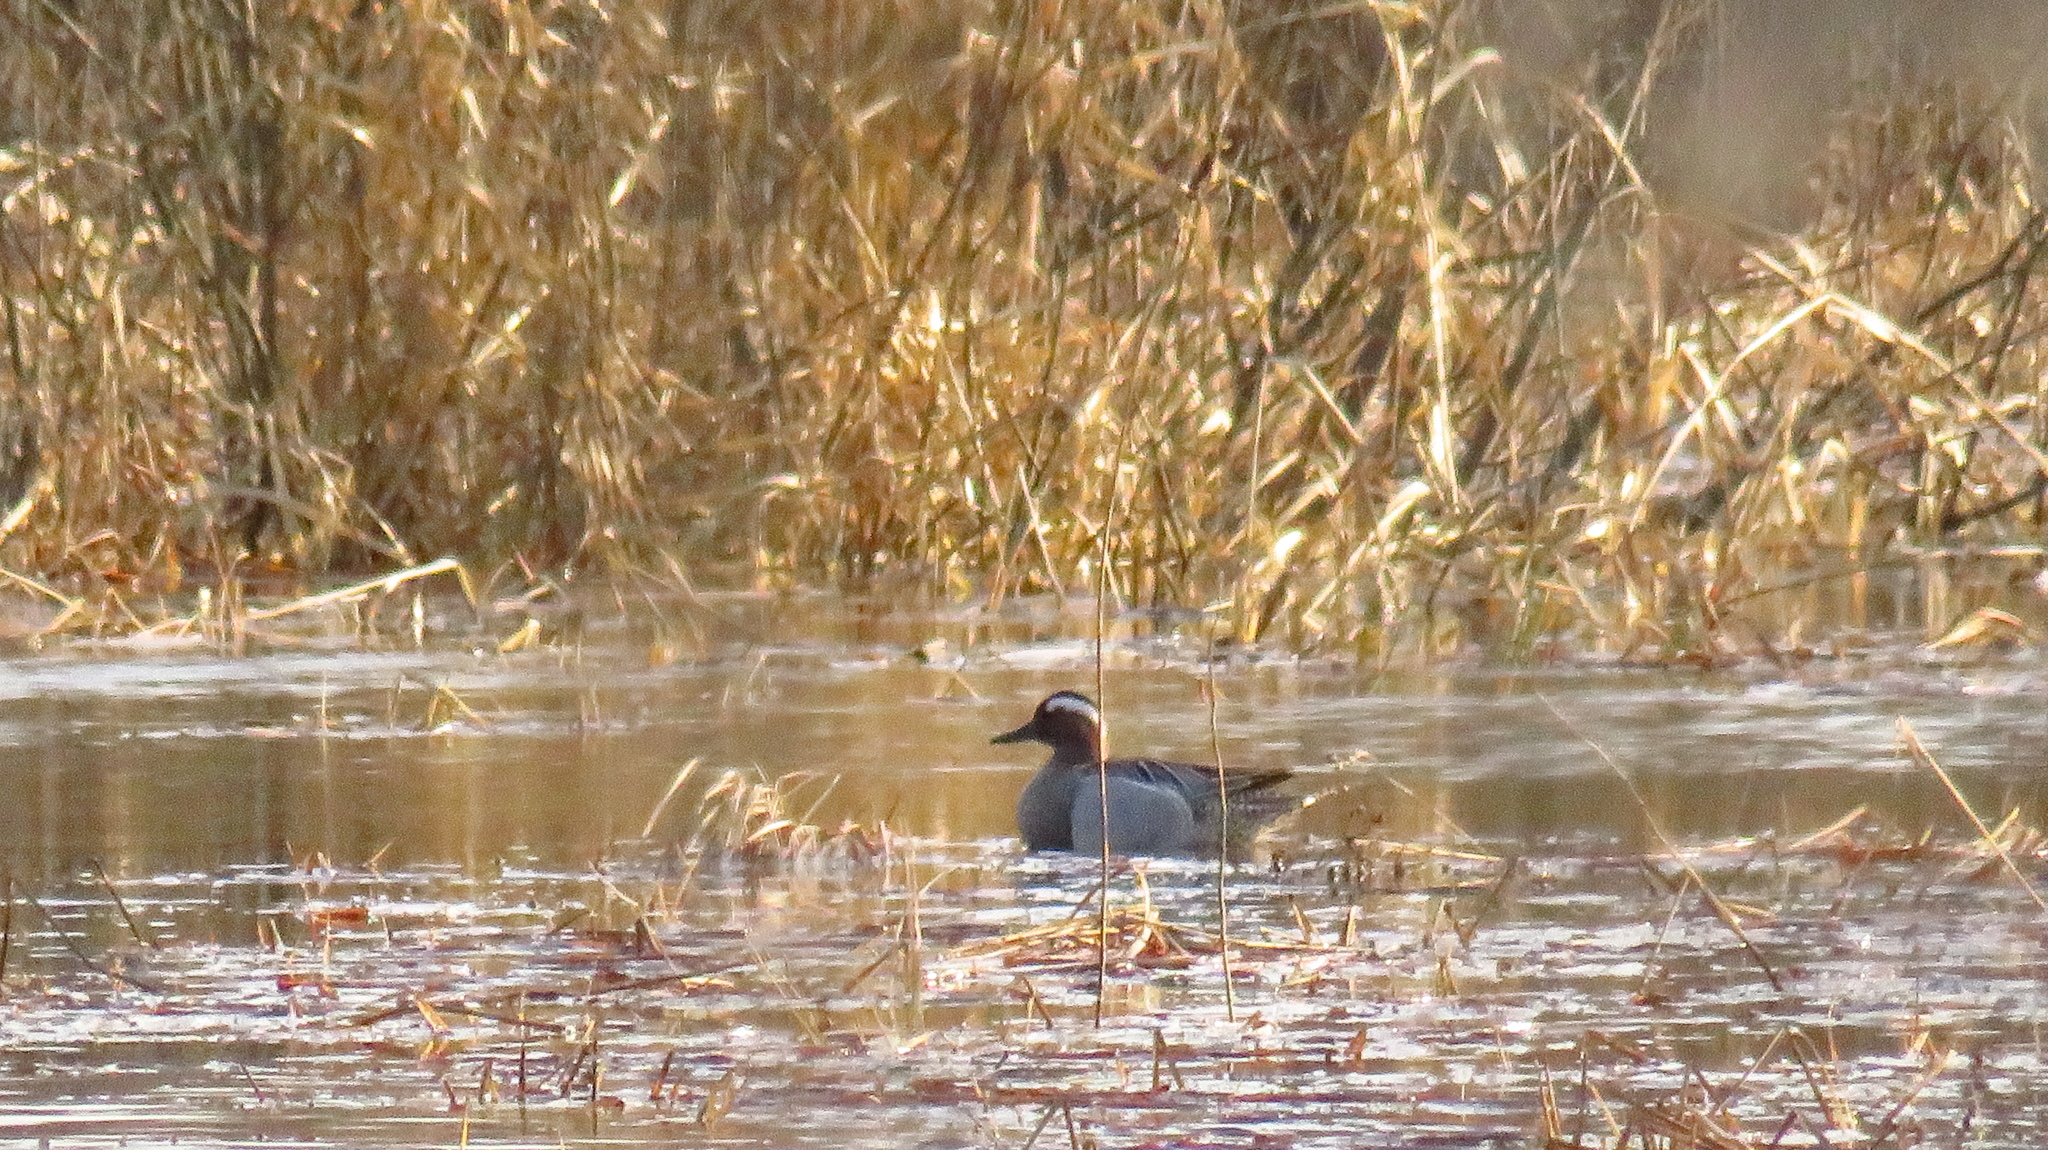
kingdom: Animalia
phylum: Chordata
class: Aves
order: Anseriformes
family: Anatidae
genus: Spatula
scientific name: Spatula querquedula
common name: Garganey
